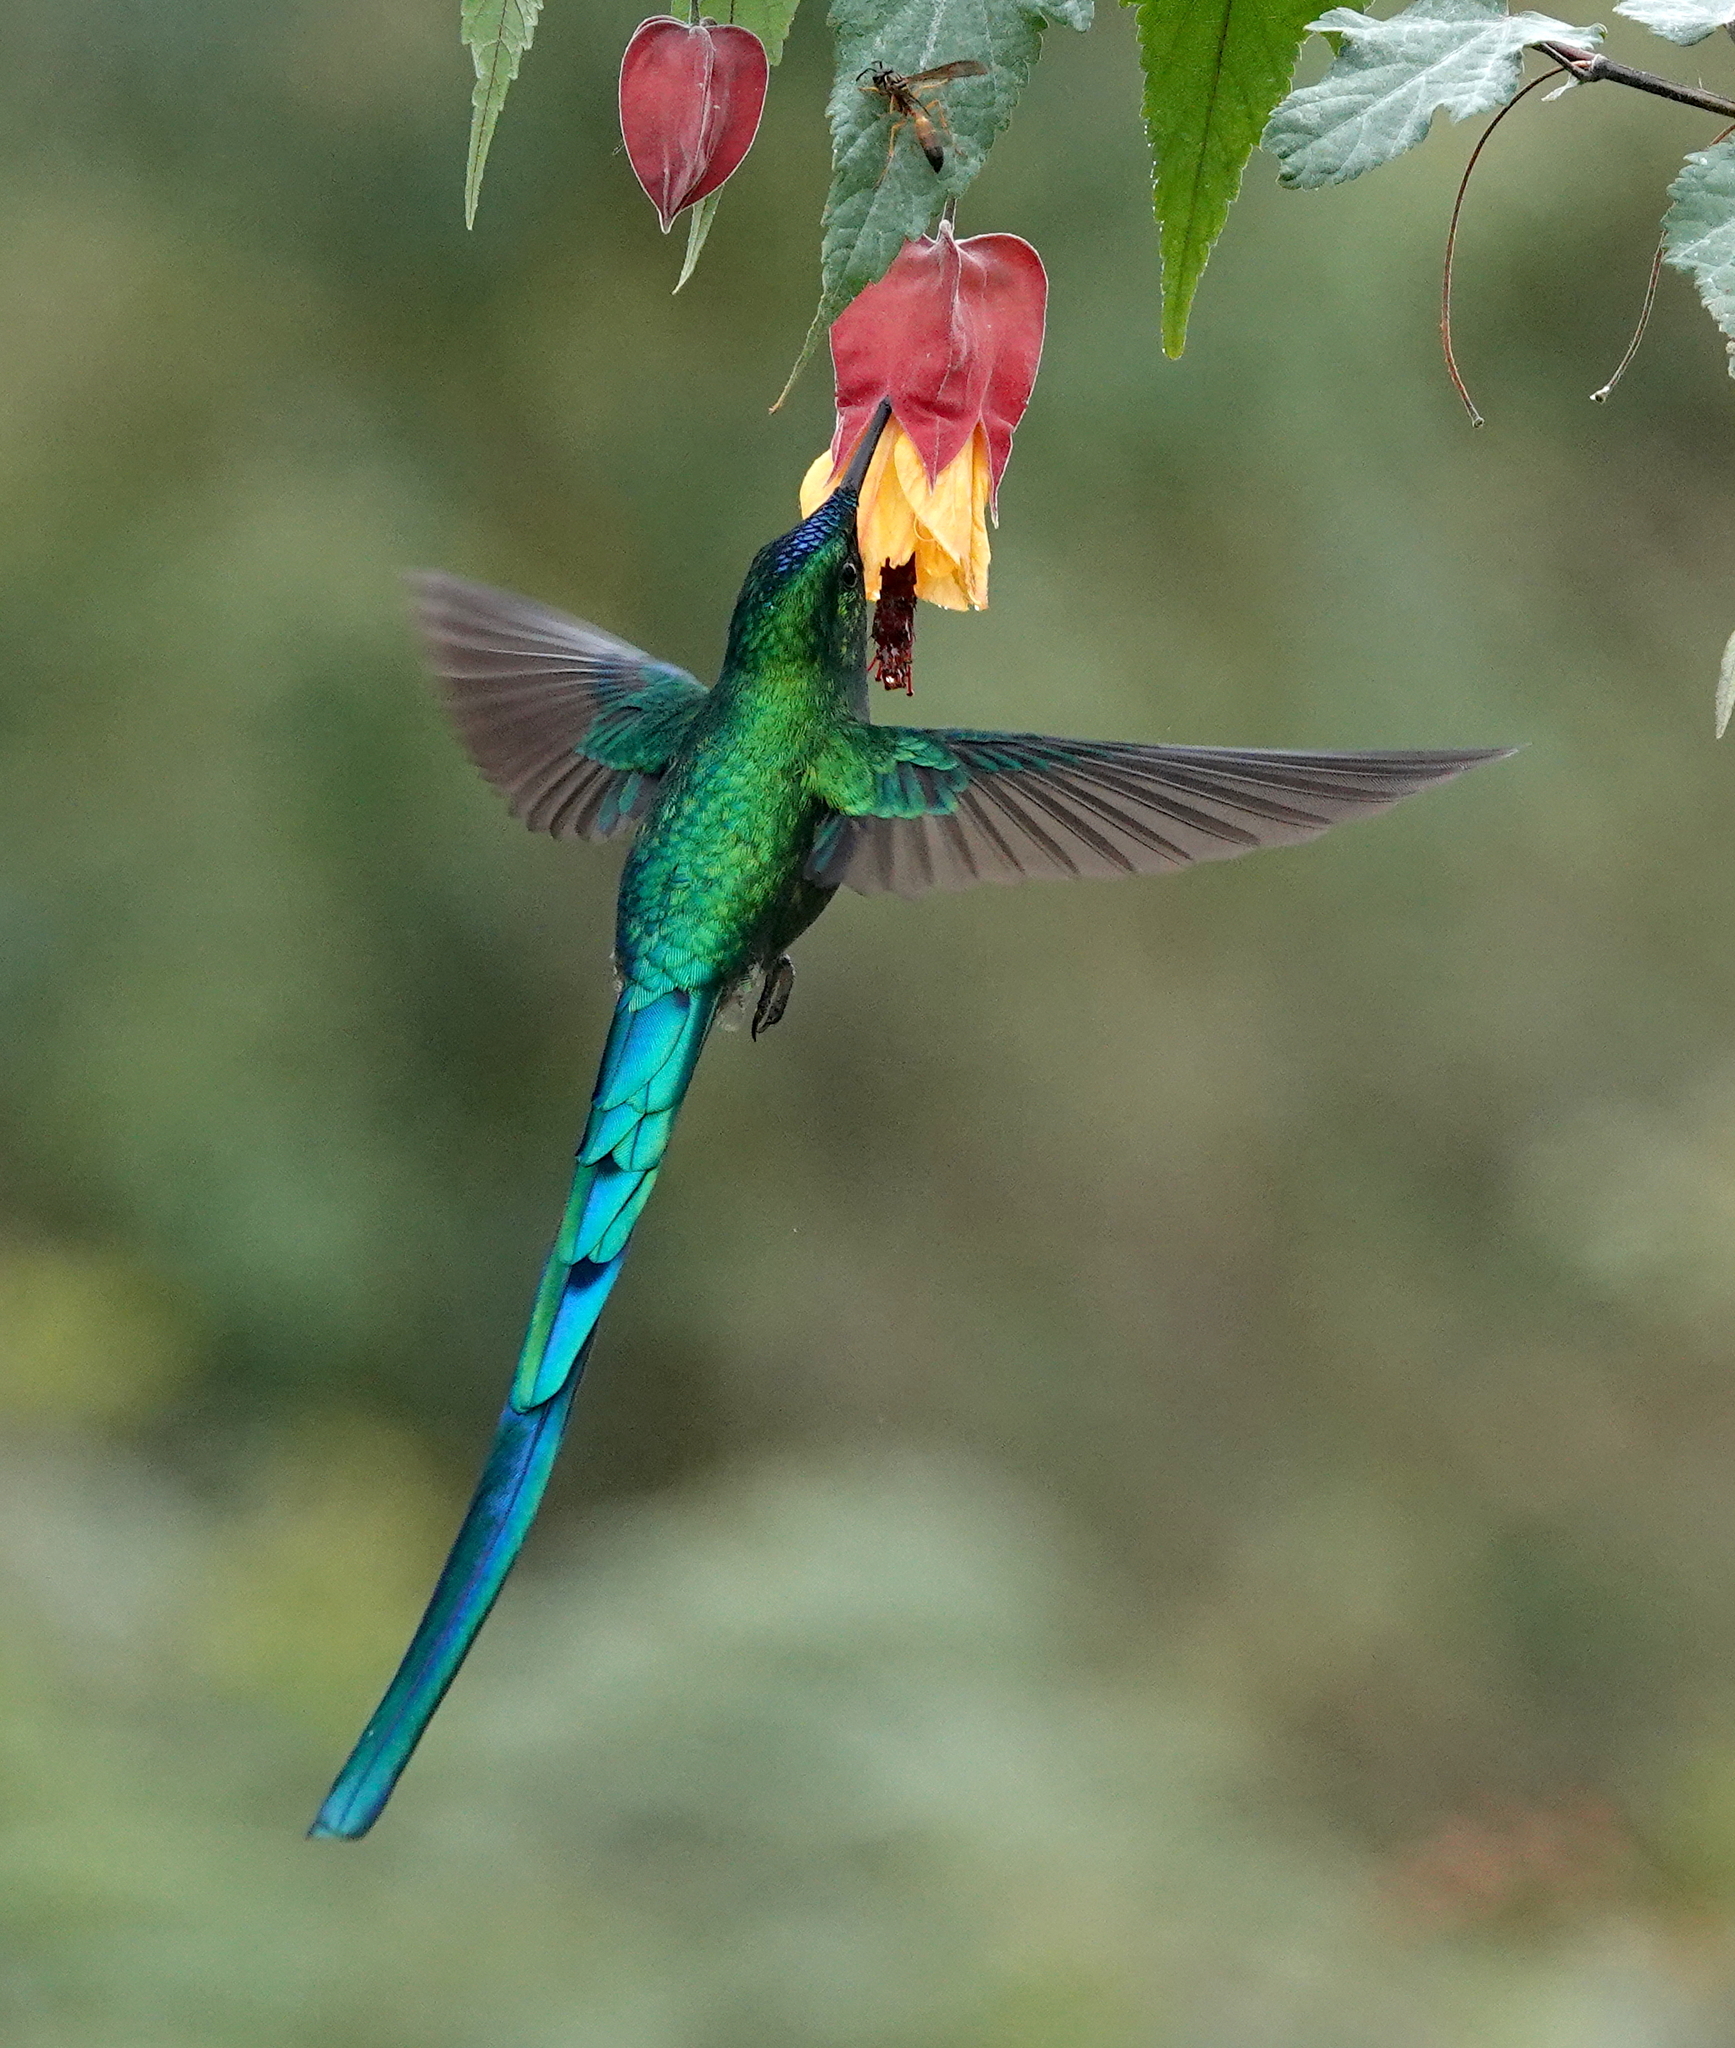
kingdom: Animalia
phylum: Chordata
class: Aves
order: Apodiformes
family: Trochilidae
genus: Aglaiocercus
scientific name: Aglaiocercus kingii
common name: Long-tailed sylph
